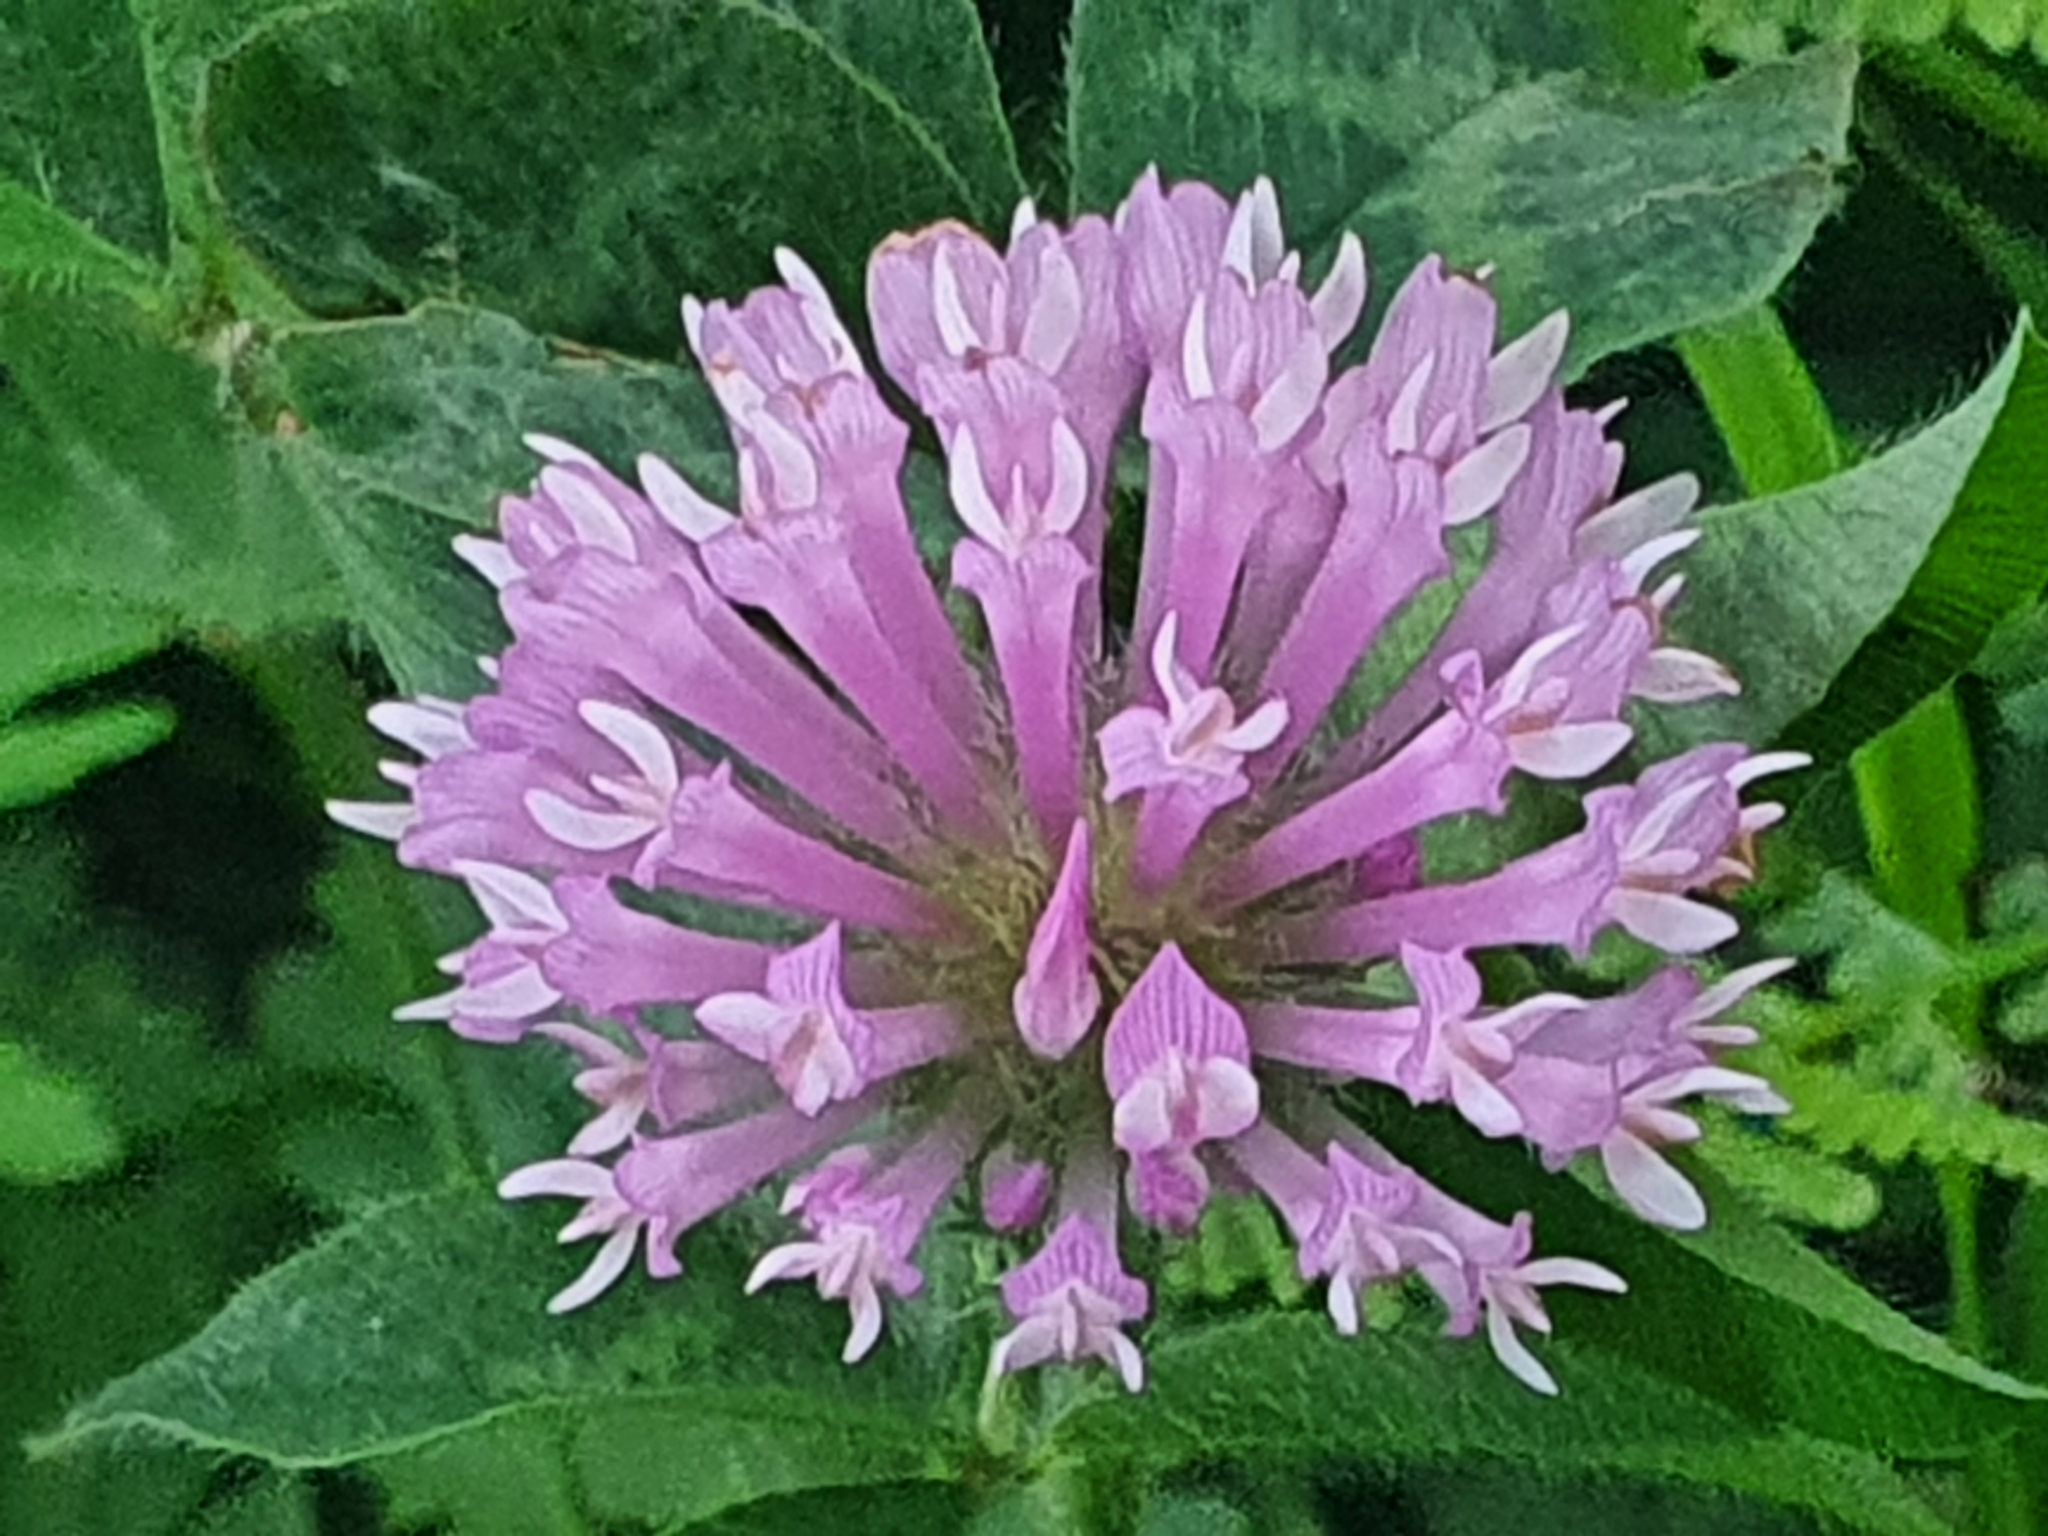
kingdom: Plantae
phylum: Tracheophyta
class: Magnoliopsida
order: Fabales
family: Fabaceae
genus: Trifolium
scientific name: Trifolium pratense
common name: Red clover
